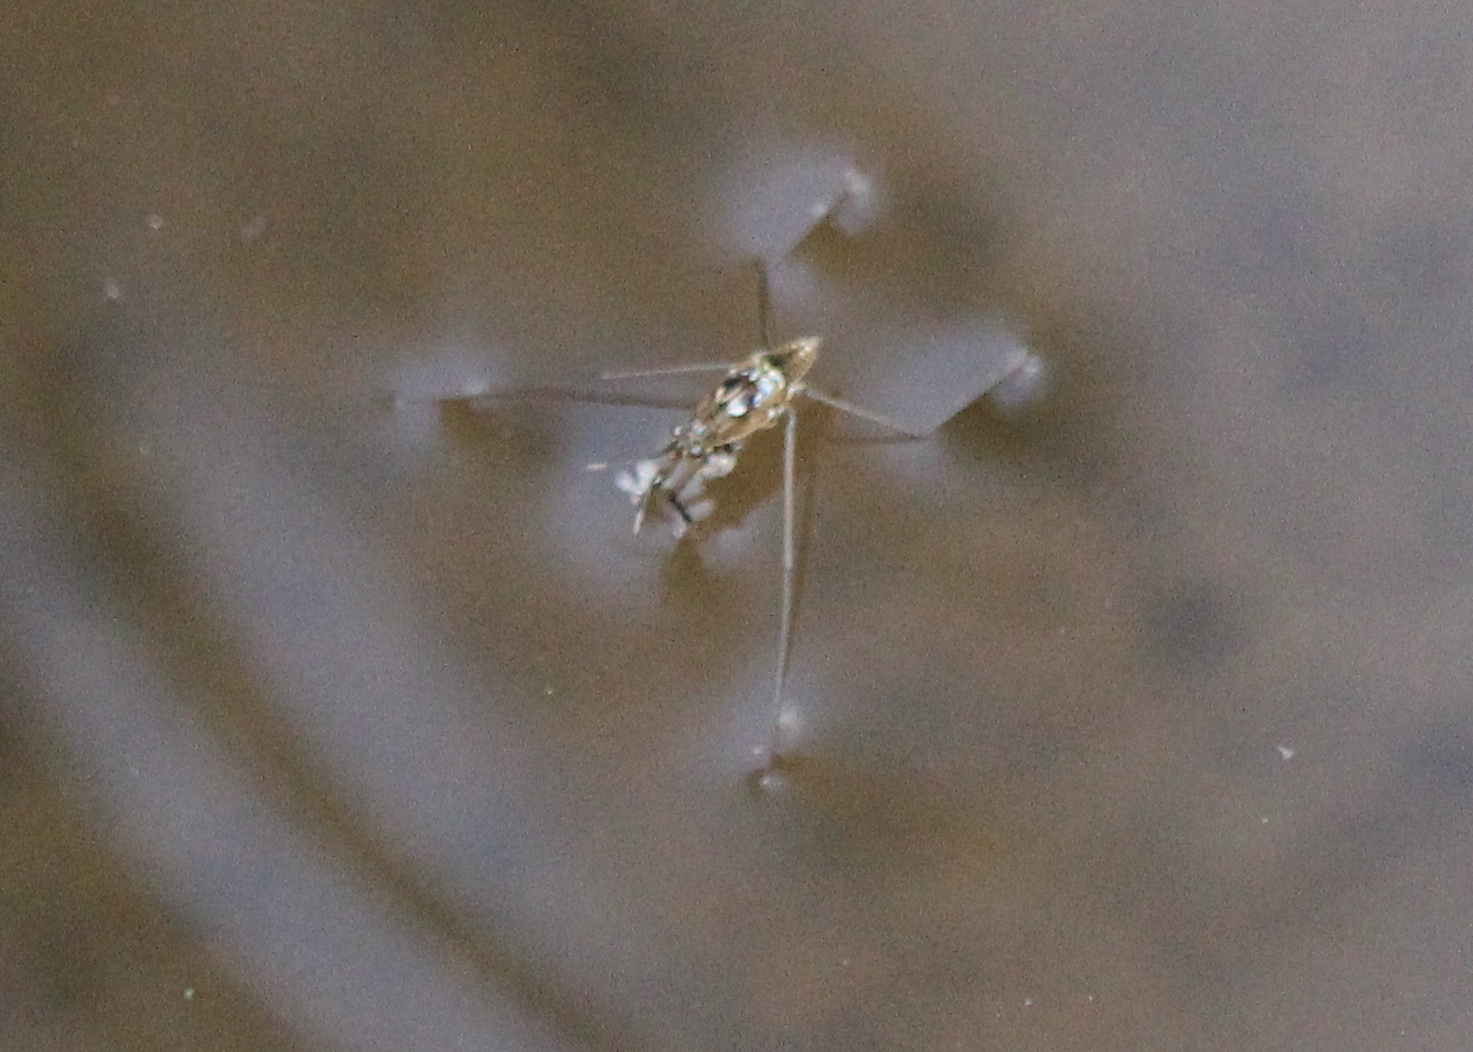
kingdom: Animalia
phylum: Arthropoda
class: Insecta
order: Hemiptera
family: Gerridae
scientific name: Gerridae
